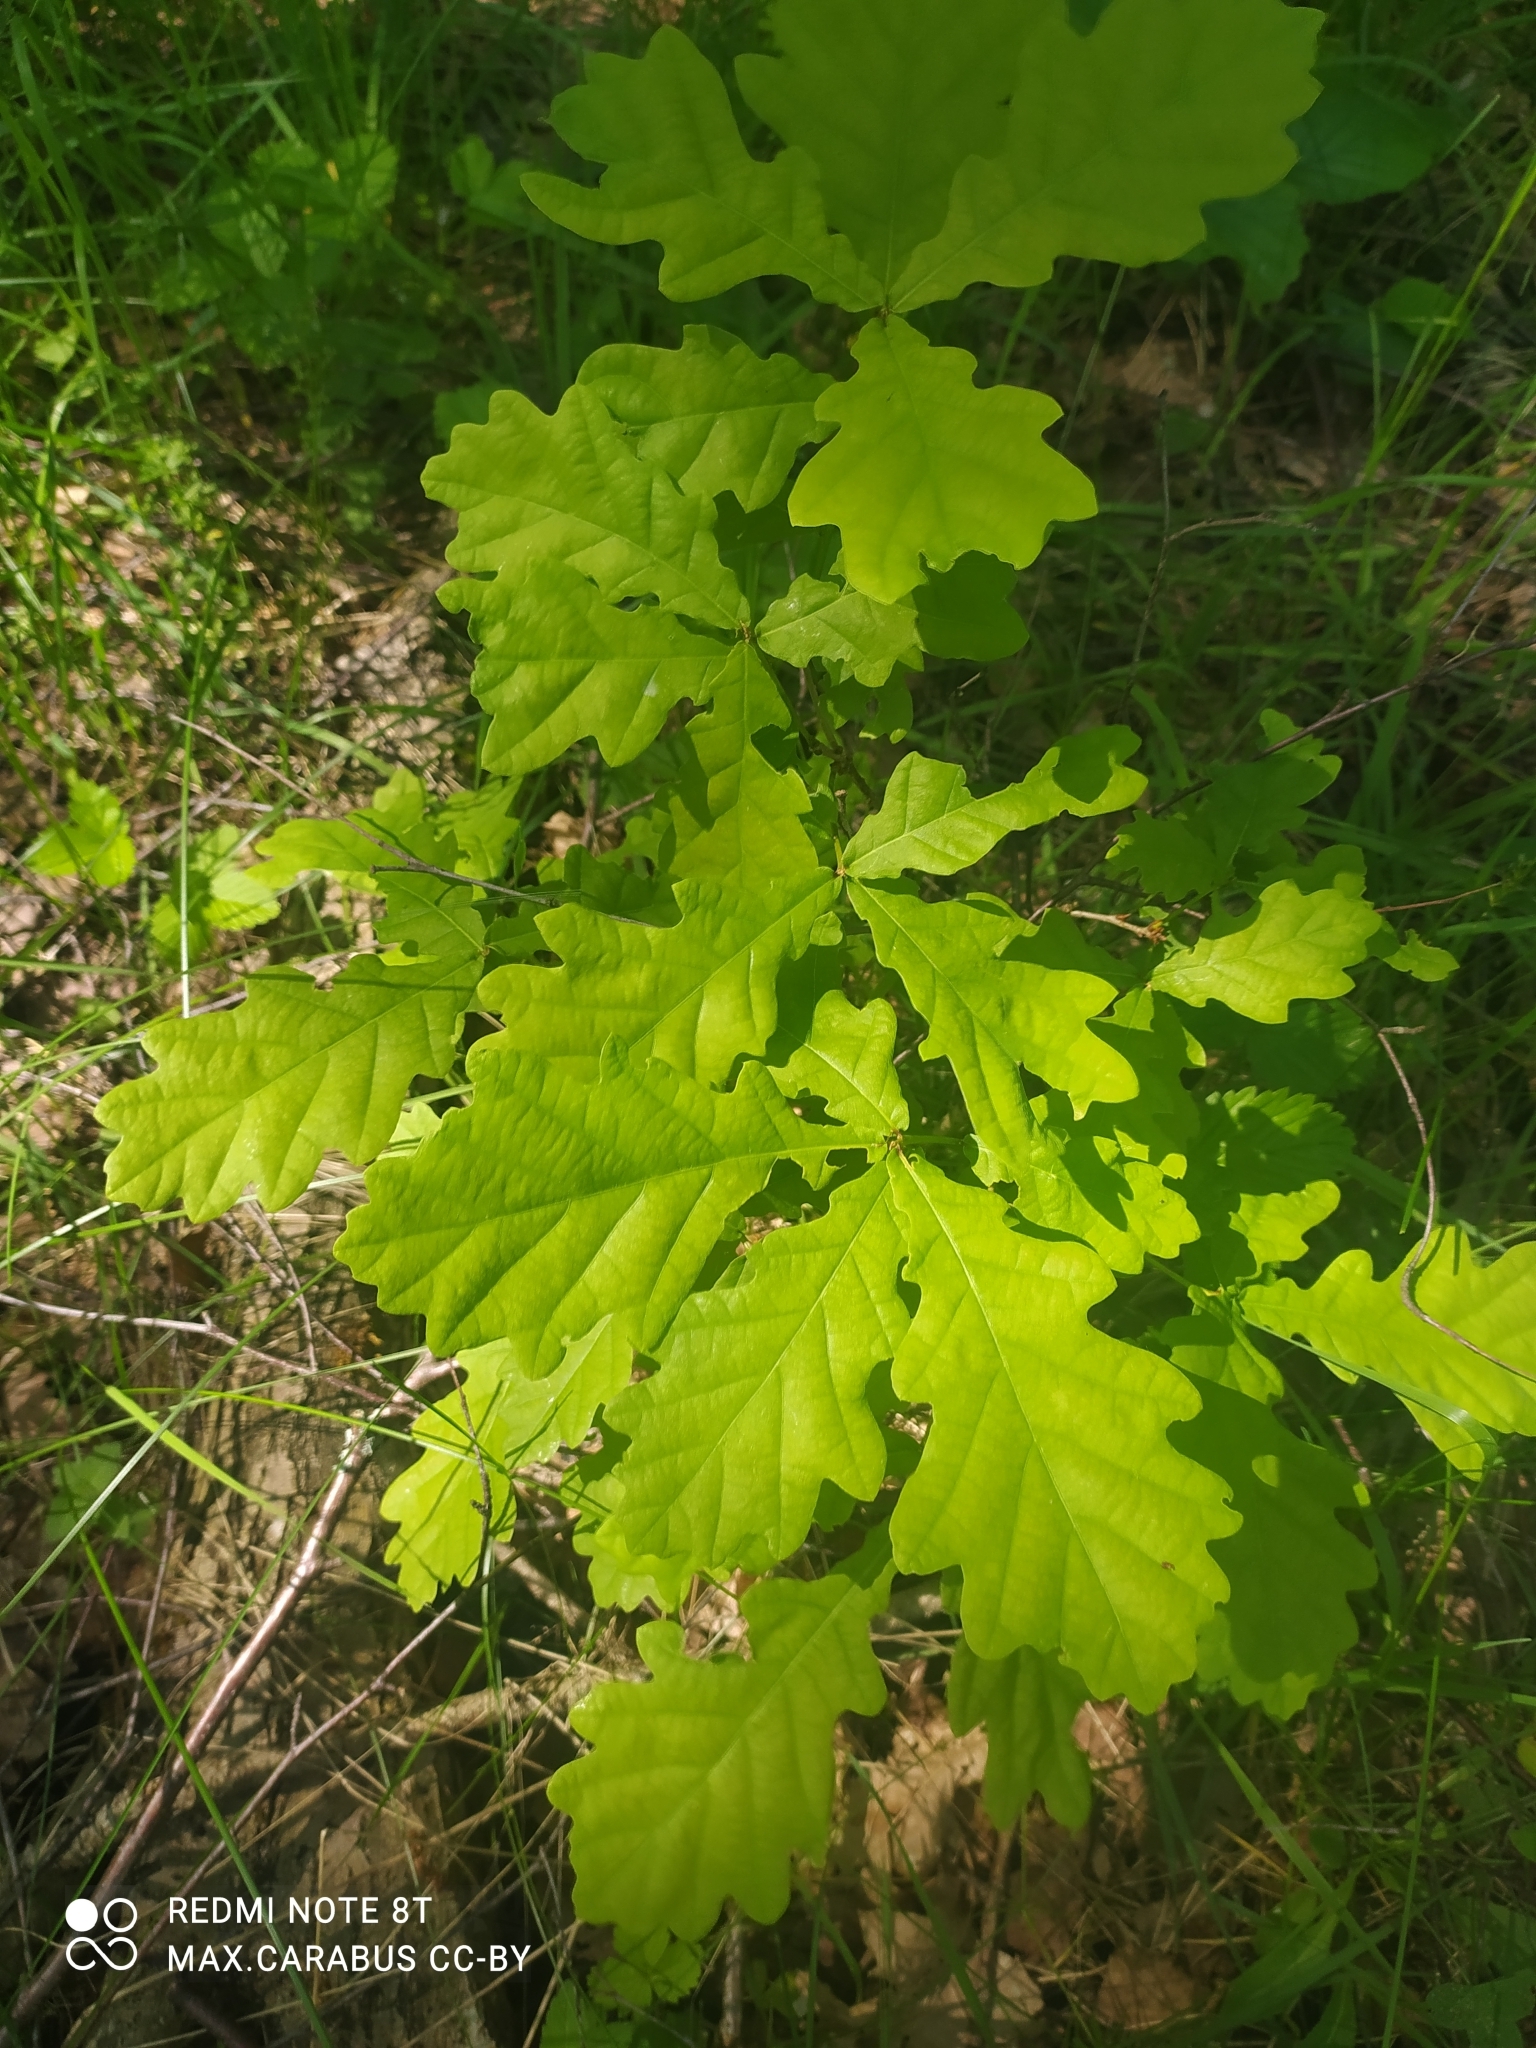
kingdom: Plantae
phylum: Tracheophyta
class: Magnoliopsida
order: Fagales
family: Fagaceae
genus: Quercus
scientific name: Quercus robur
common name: Pedunculate oak
